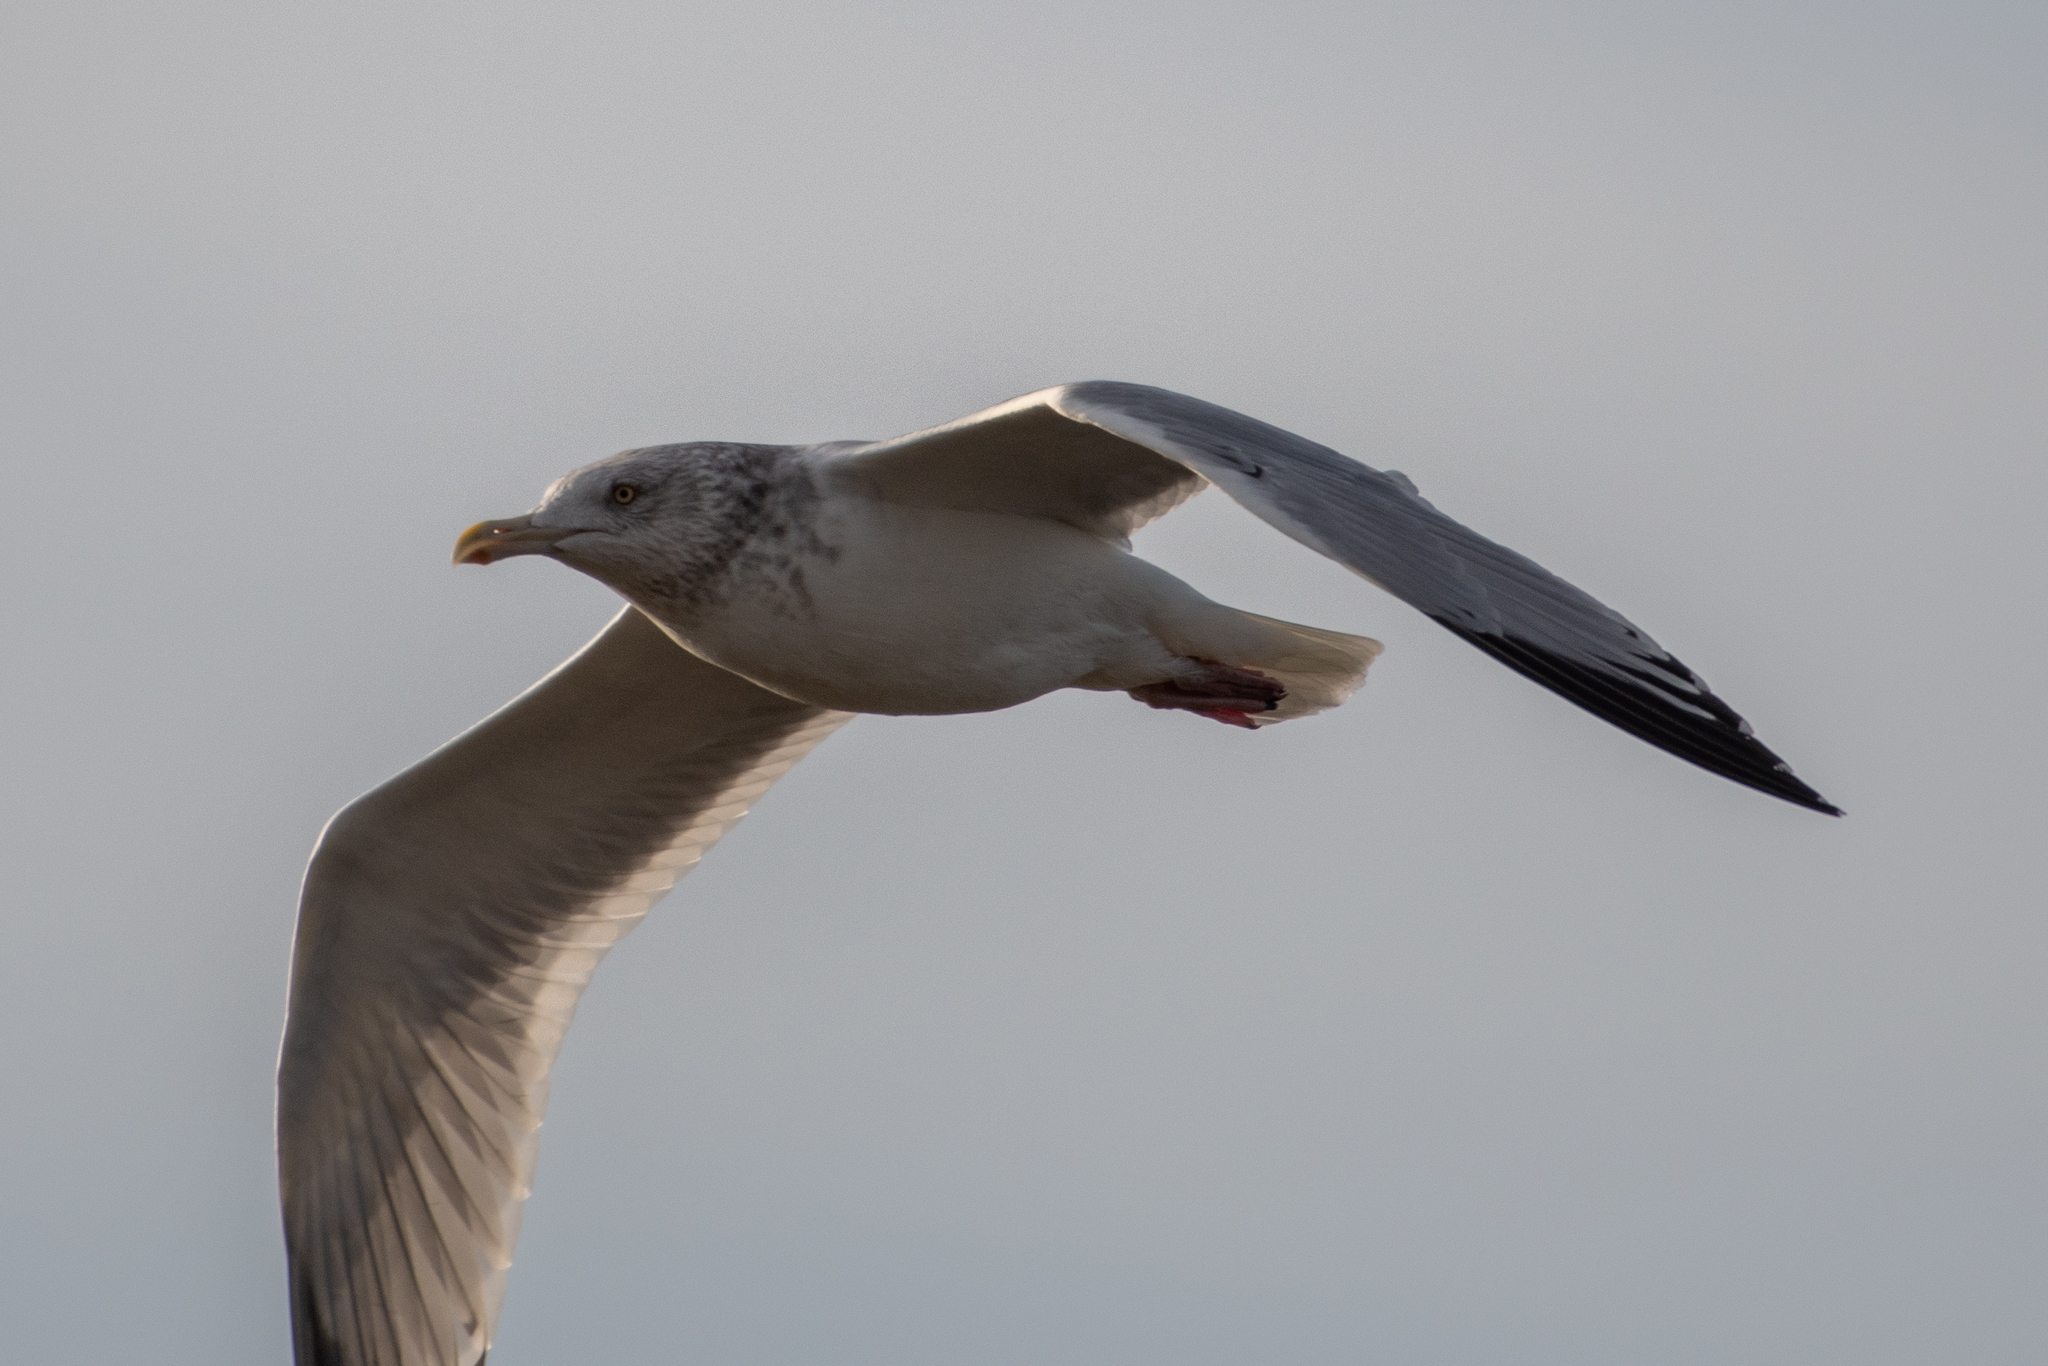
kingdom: Animalia
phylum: Chordata
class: Aves
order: Charadriiformes
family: Laridae
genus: Larus
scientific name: Larus argentatus
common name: Herring gull
